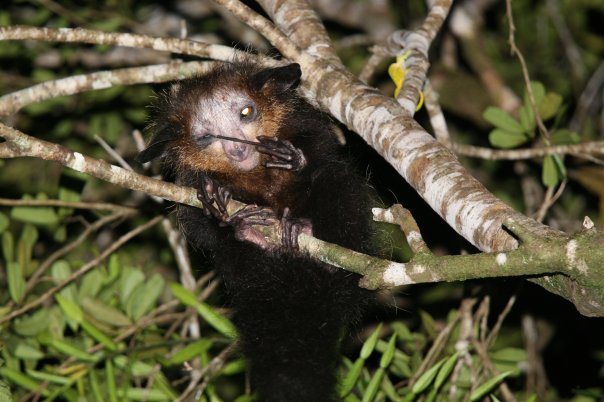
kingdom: Animalia
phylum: Chordata
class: Mammalia
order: Primates
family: Daubentoniidae
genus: Daubentonia
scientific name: Daubentonia madagascariensis
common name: Aye-aye
